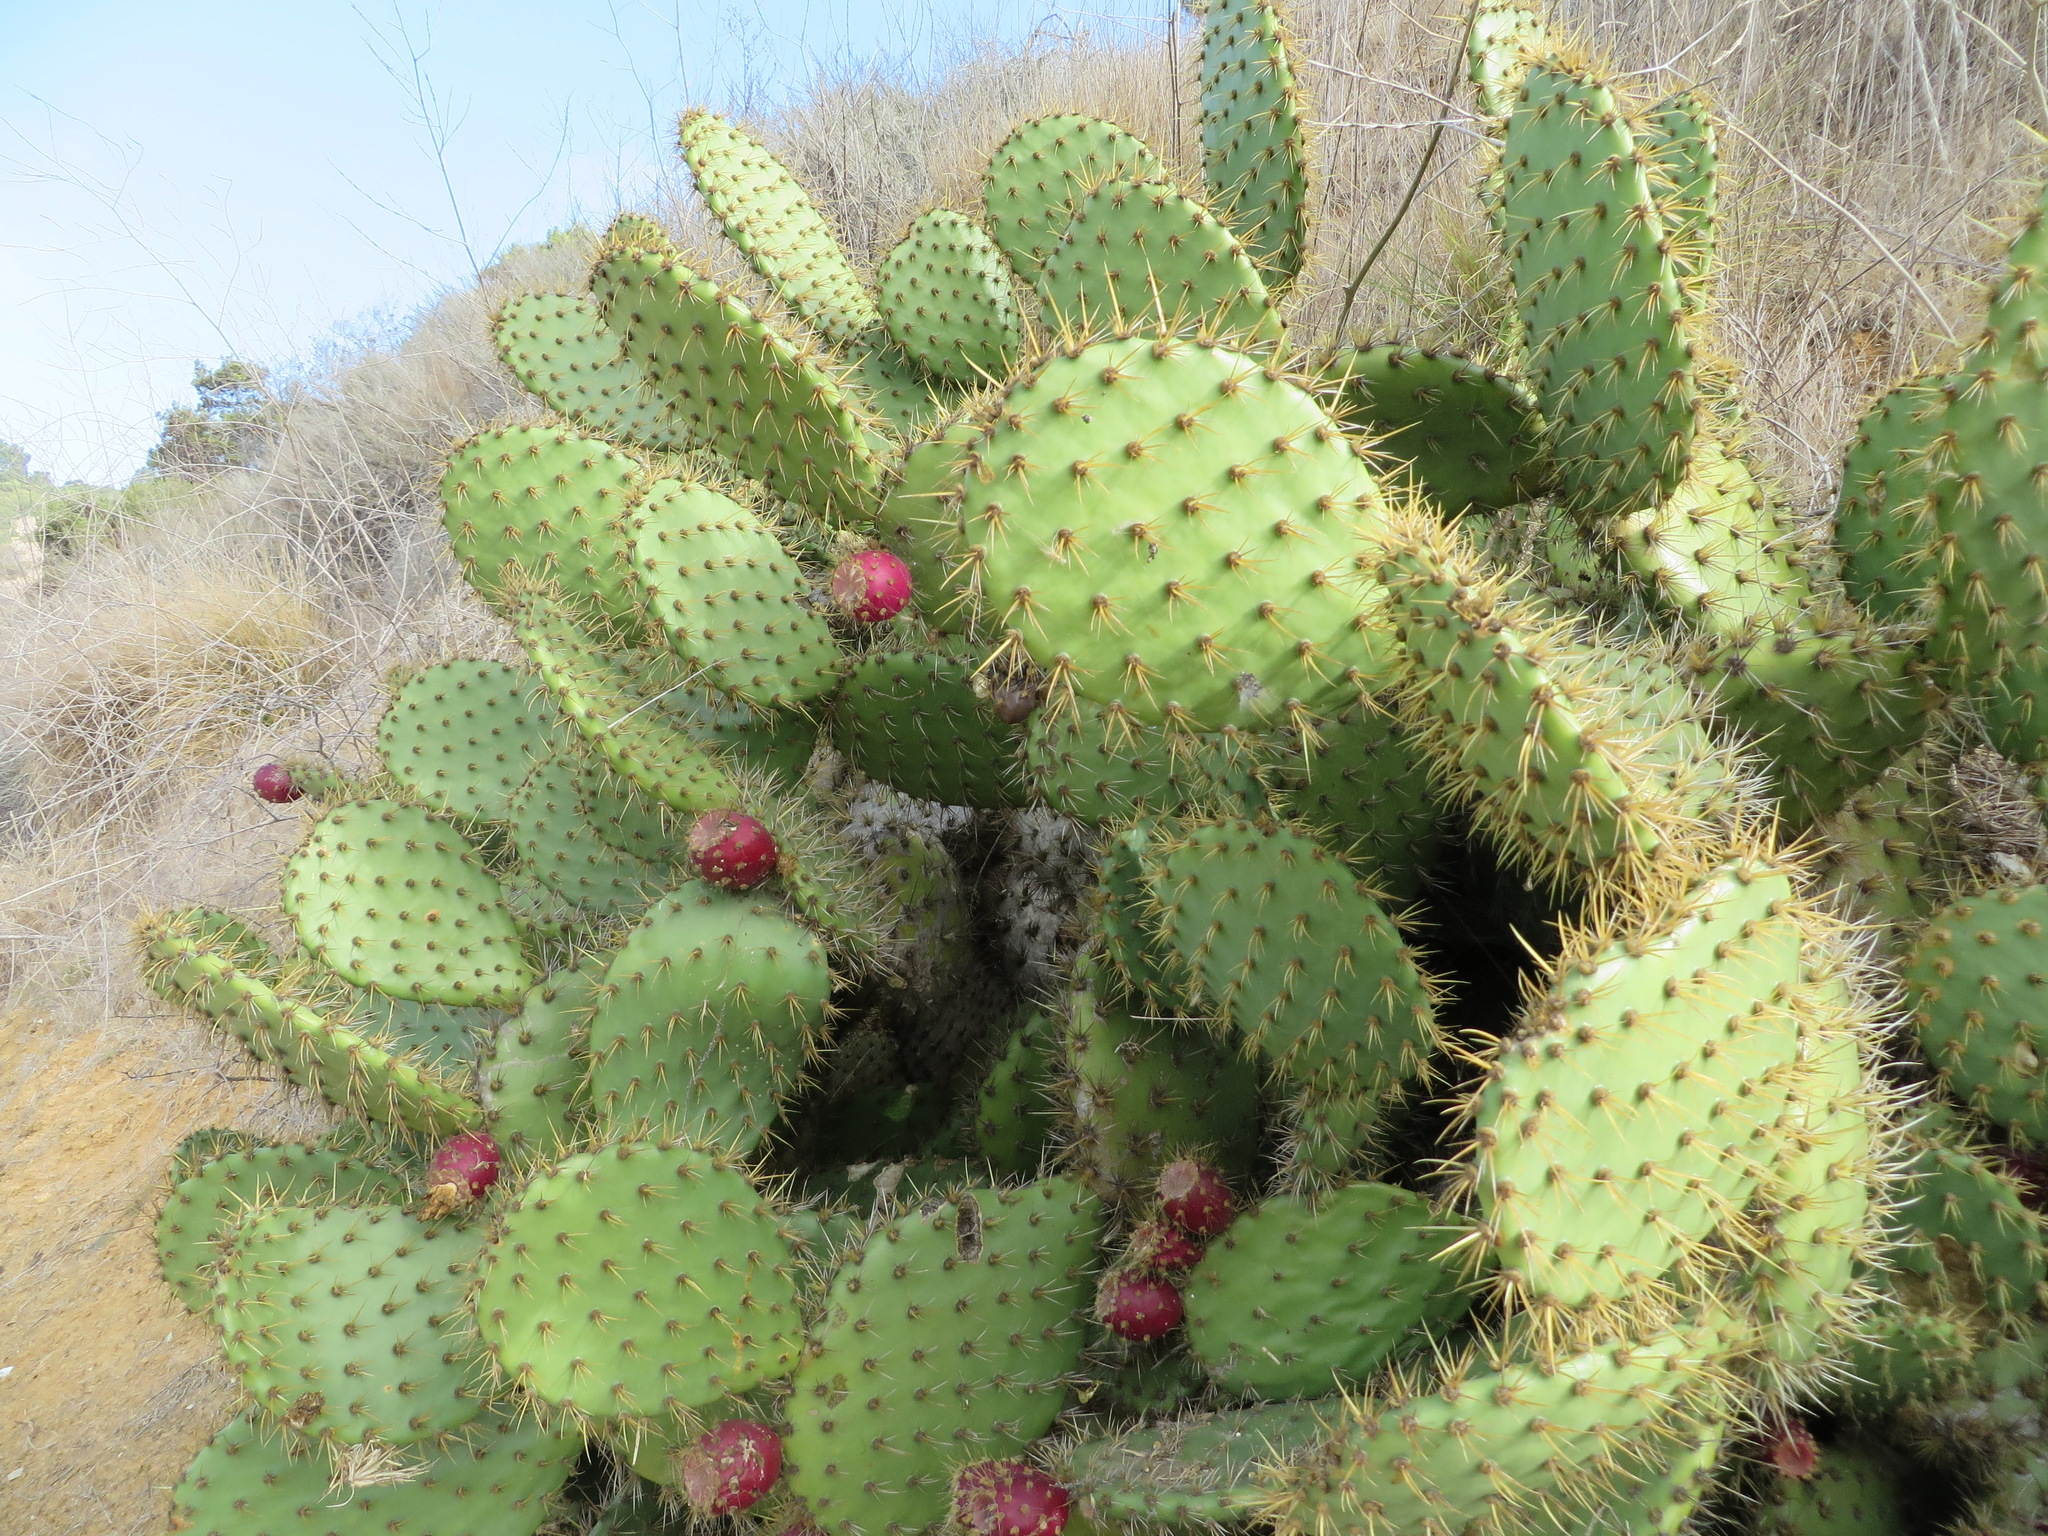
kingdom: Plantae
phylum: Tracheophyta
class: Magnoliopsida
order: Caryophyllales
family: Cactaceae
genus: Opuntia
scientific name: Opuntia oricola
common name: Chaparral prickly-pear
